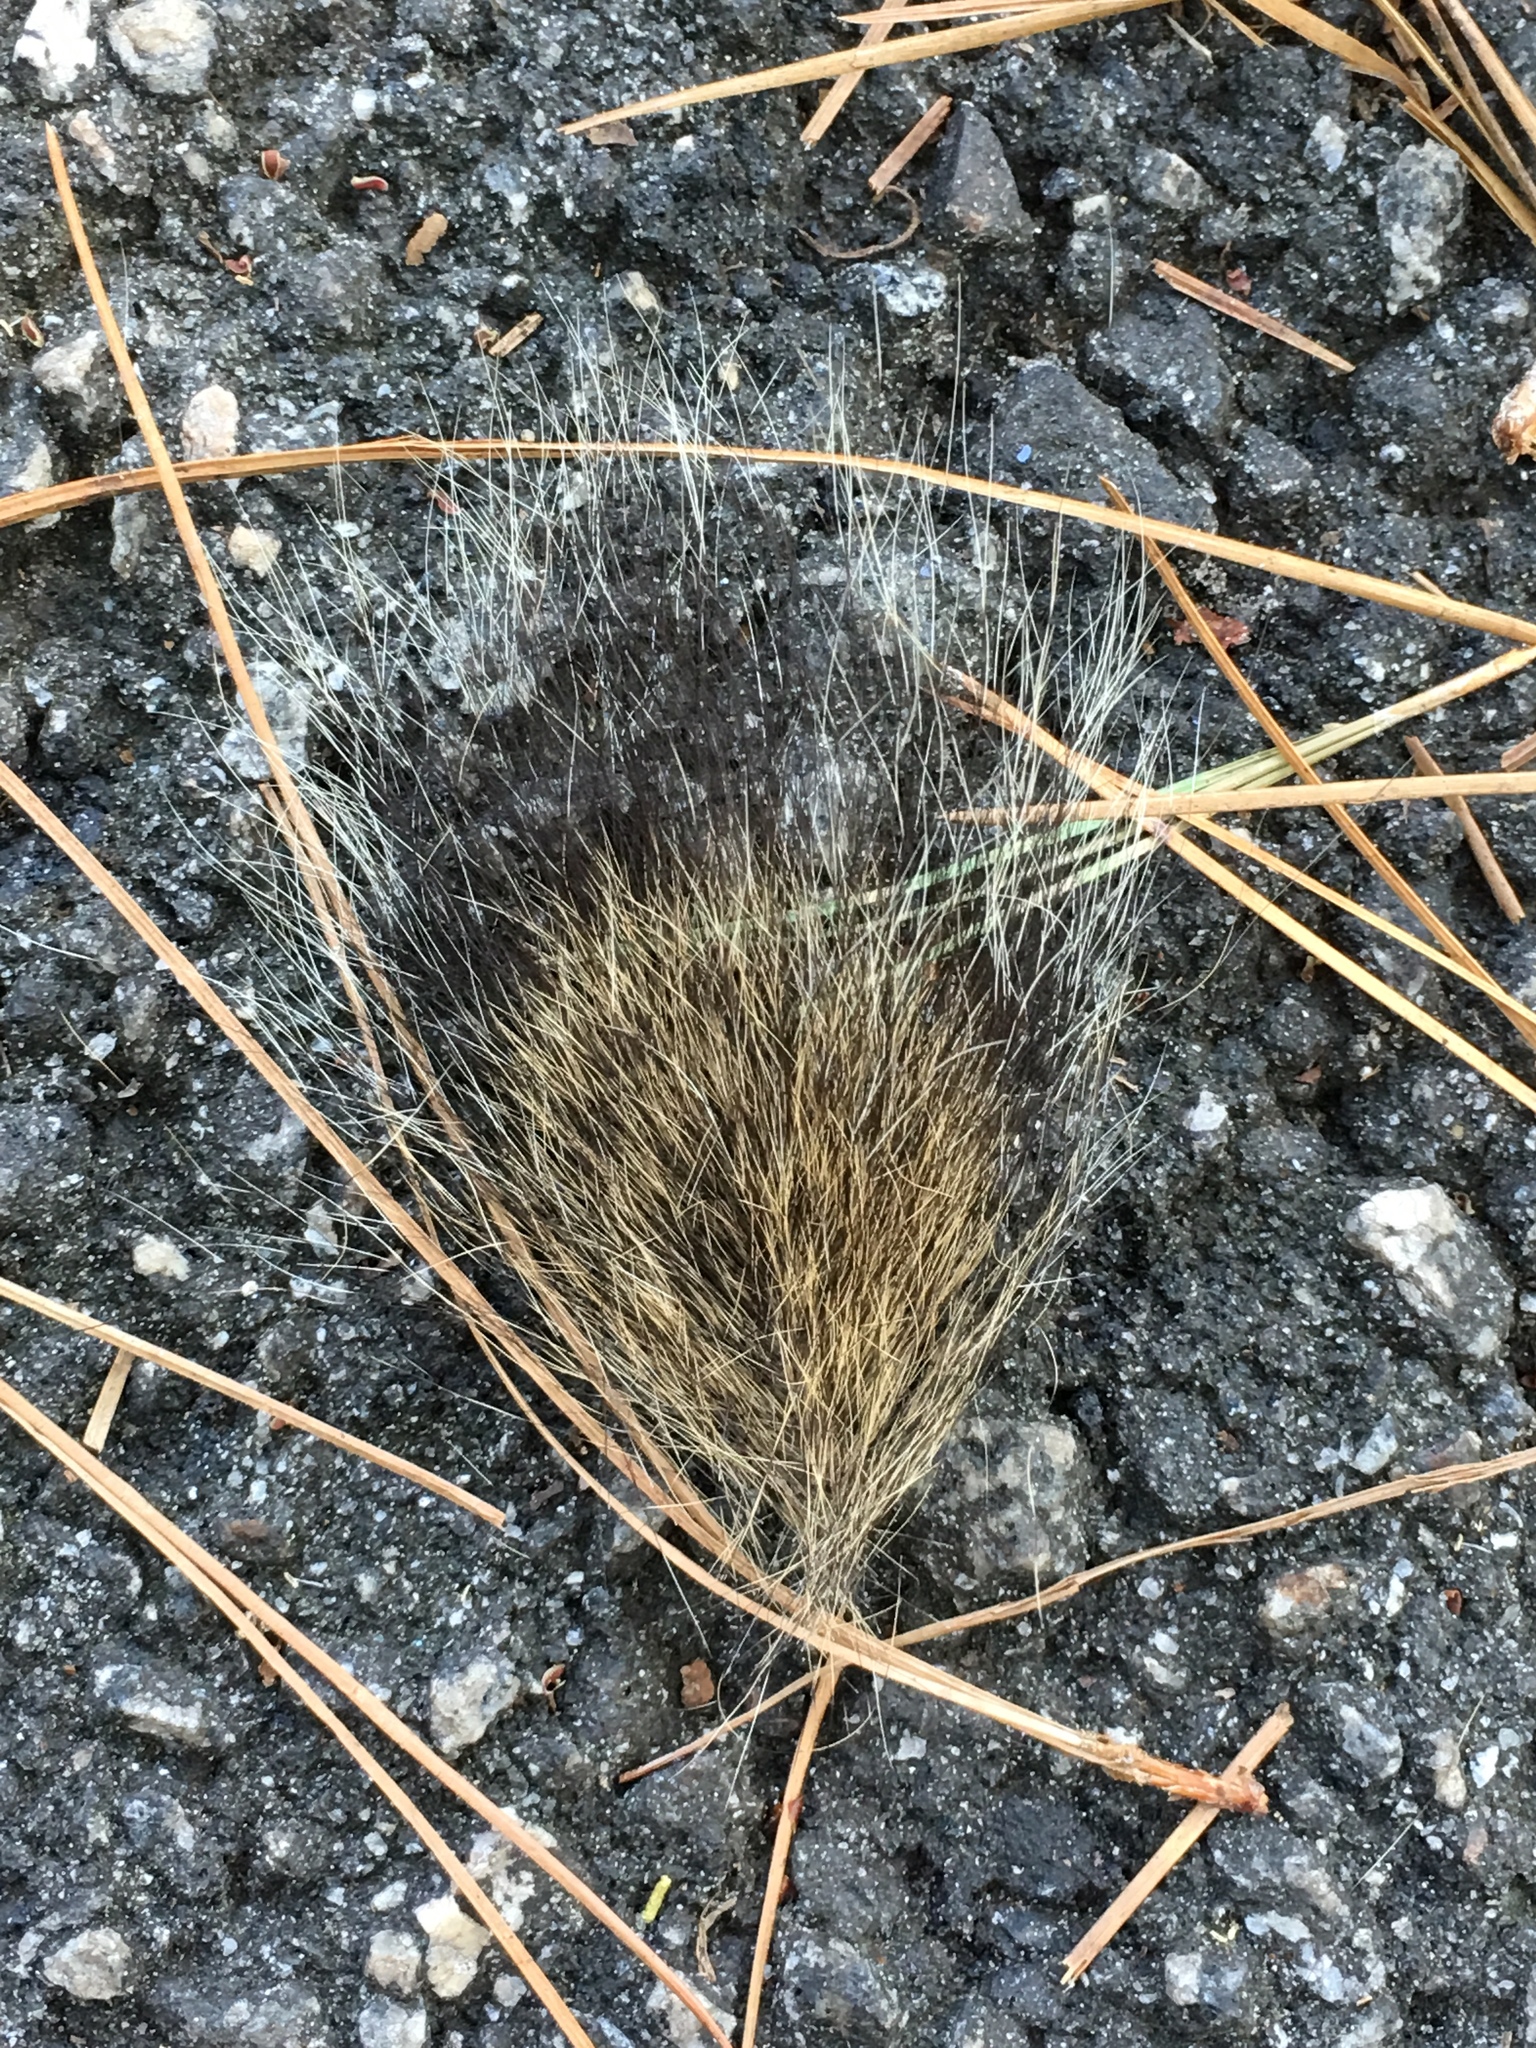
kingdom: Animalia
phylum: Chordata
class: Mammalia
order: Rodentia
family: Sciuridae
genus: Sciurus
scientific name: Sciurus carolinensis
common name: Eastern gray squirrel
